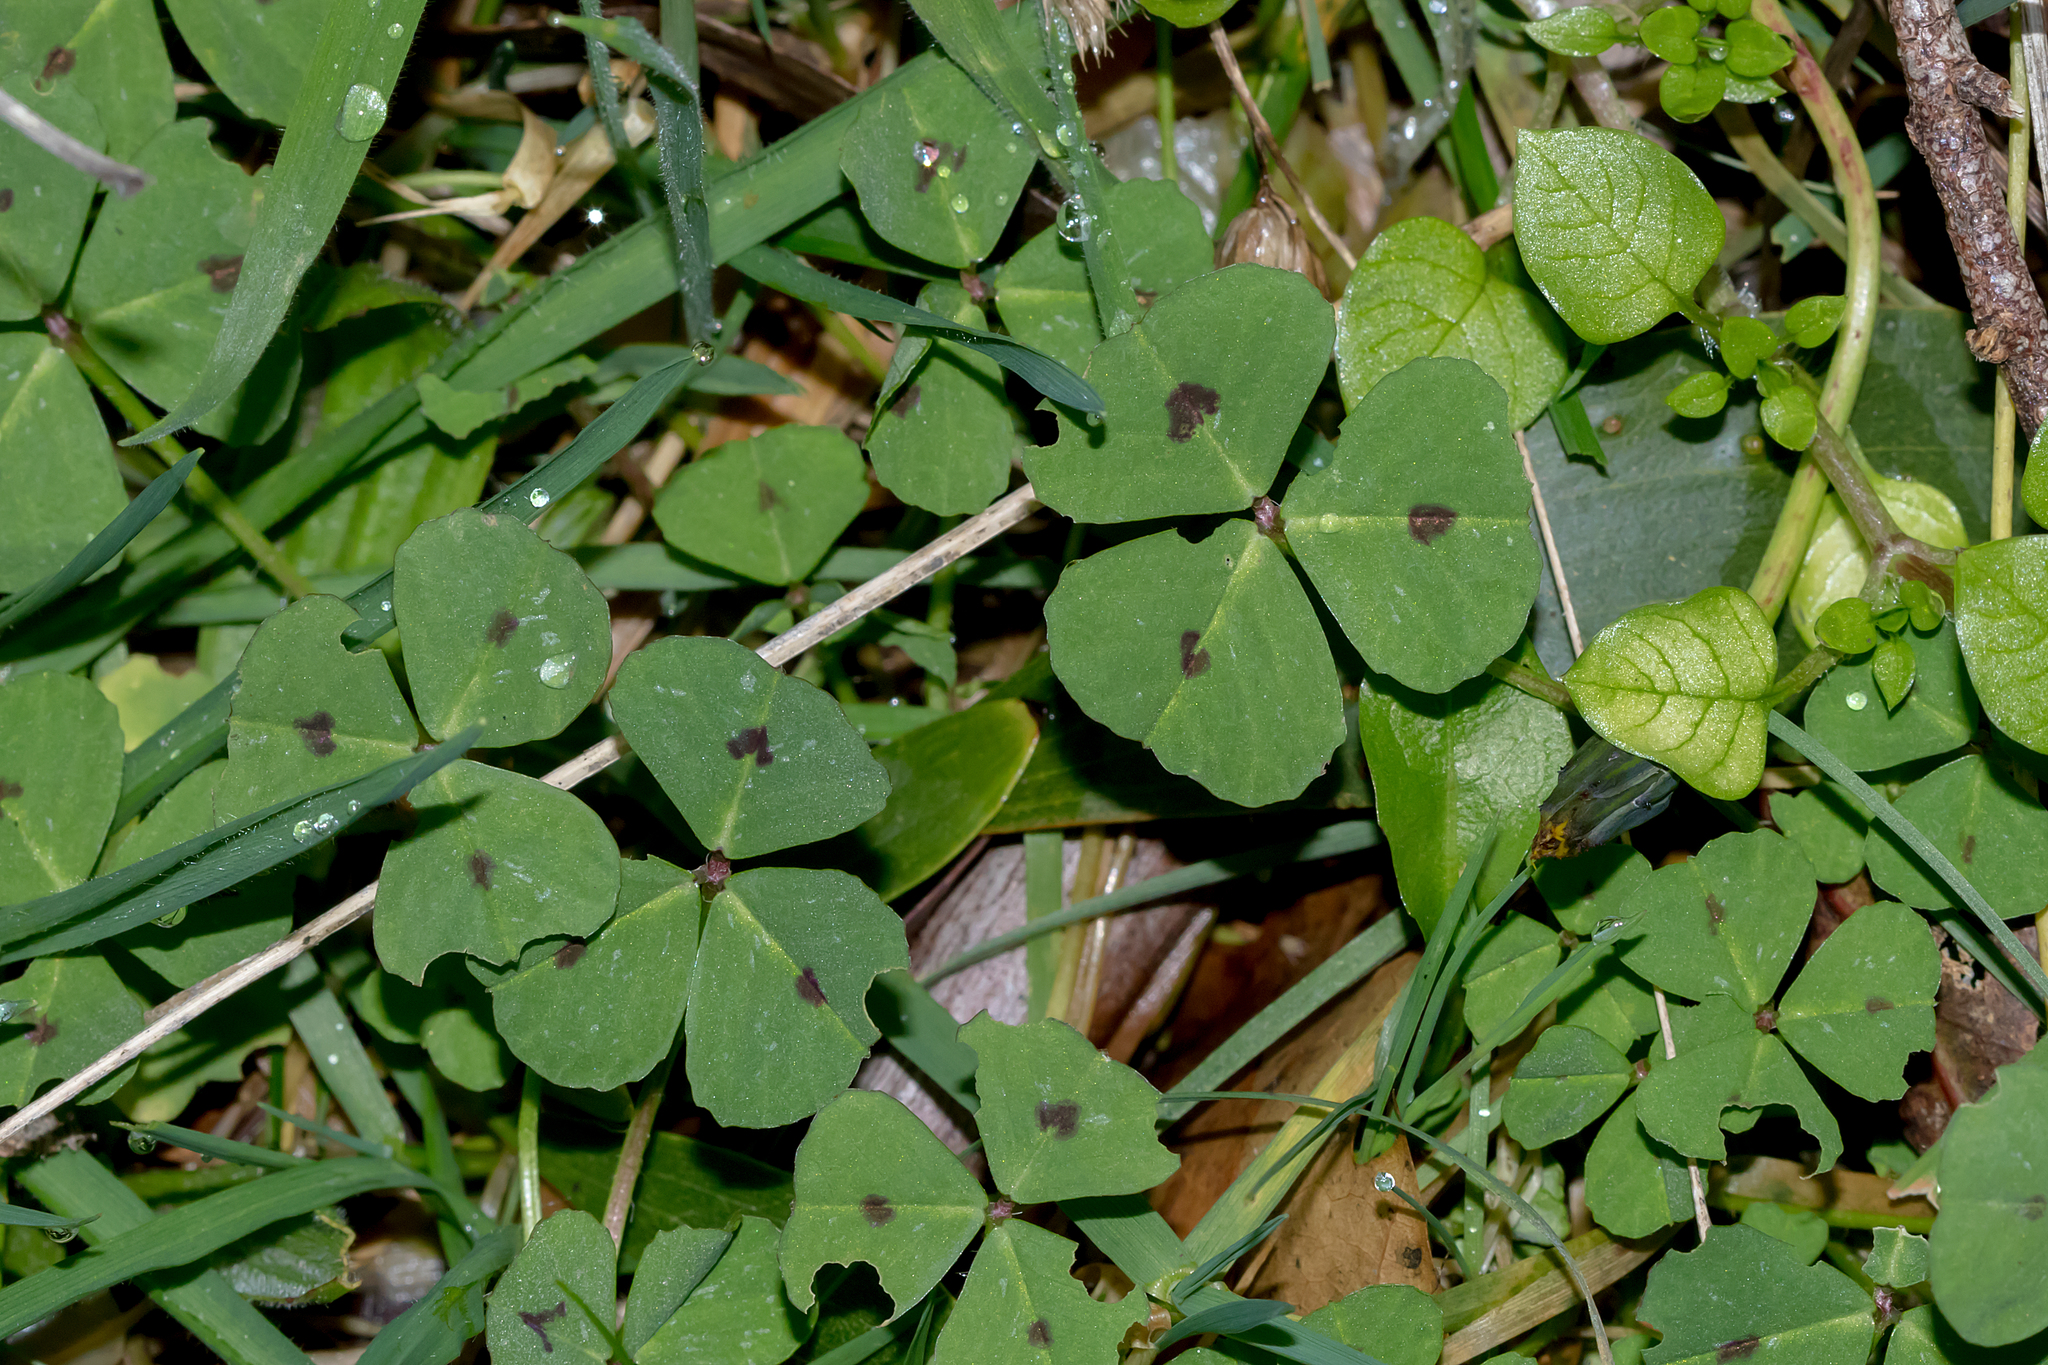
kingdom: Plantae
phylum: Tracheophyta
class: Magnoliopsida
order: Fabales
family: Fabaceae
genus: Medicago
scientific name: Medicago arabica
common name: Spotted medick
